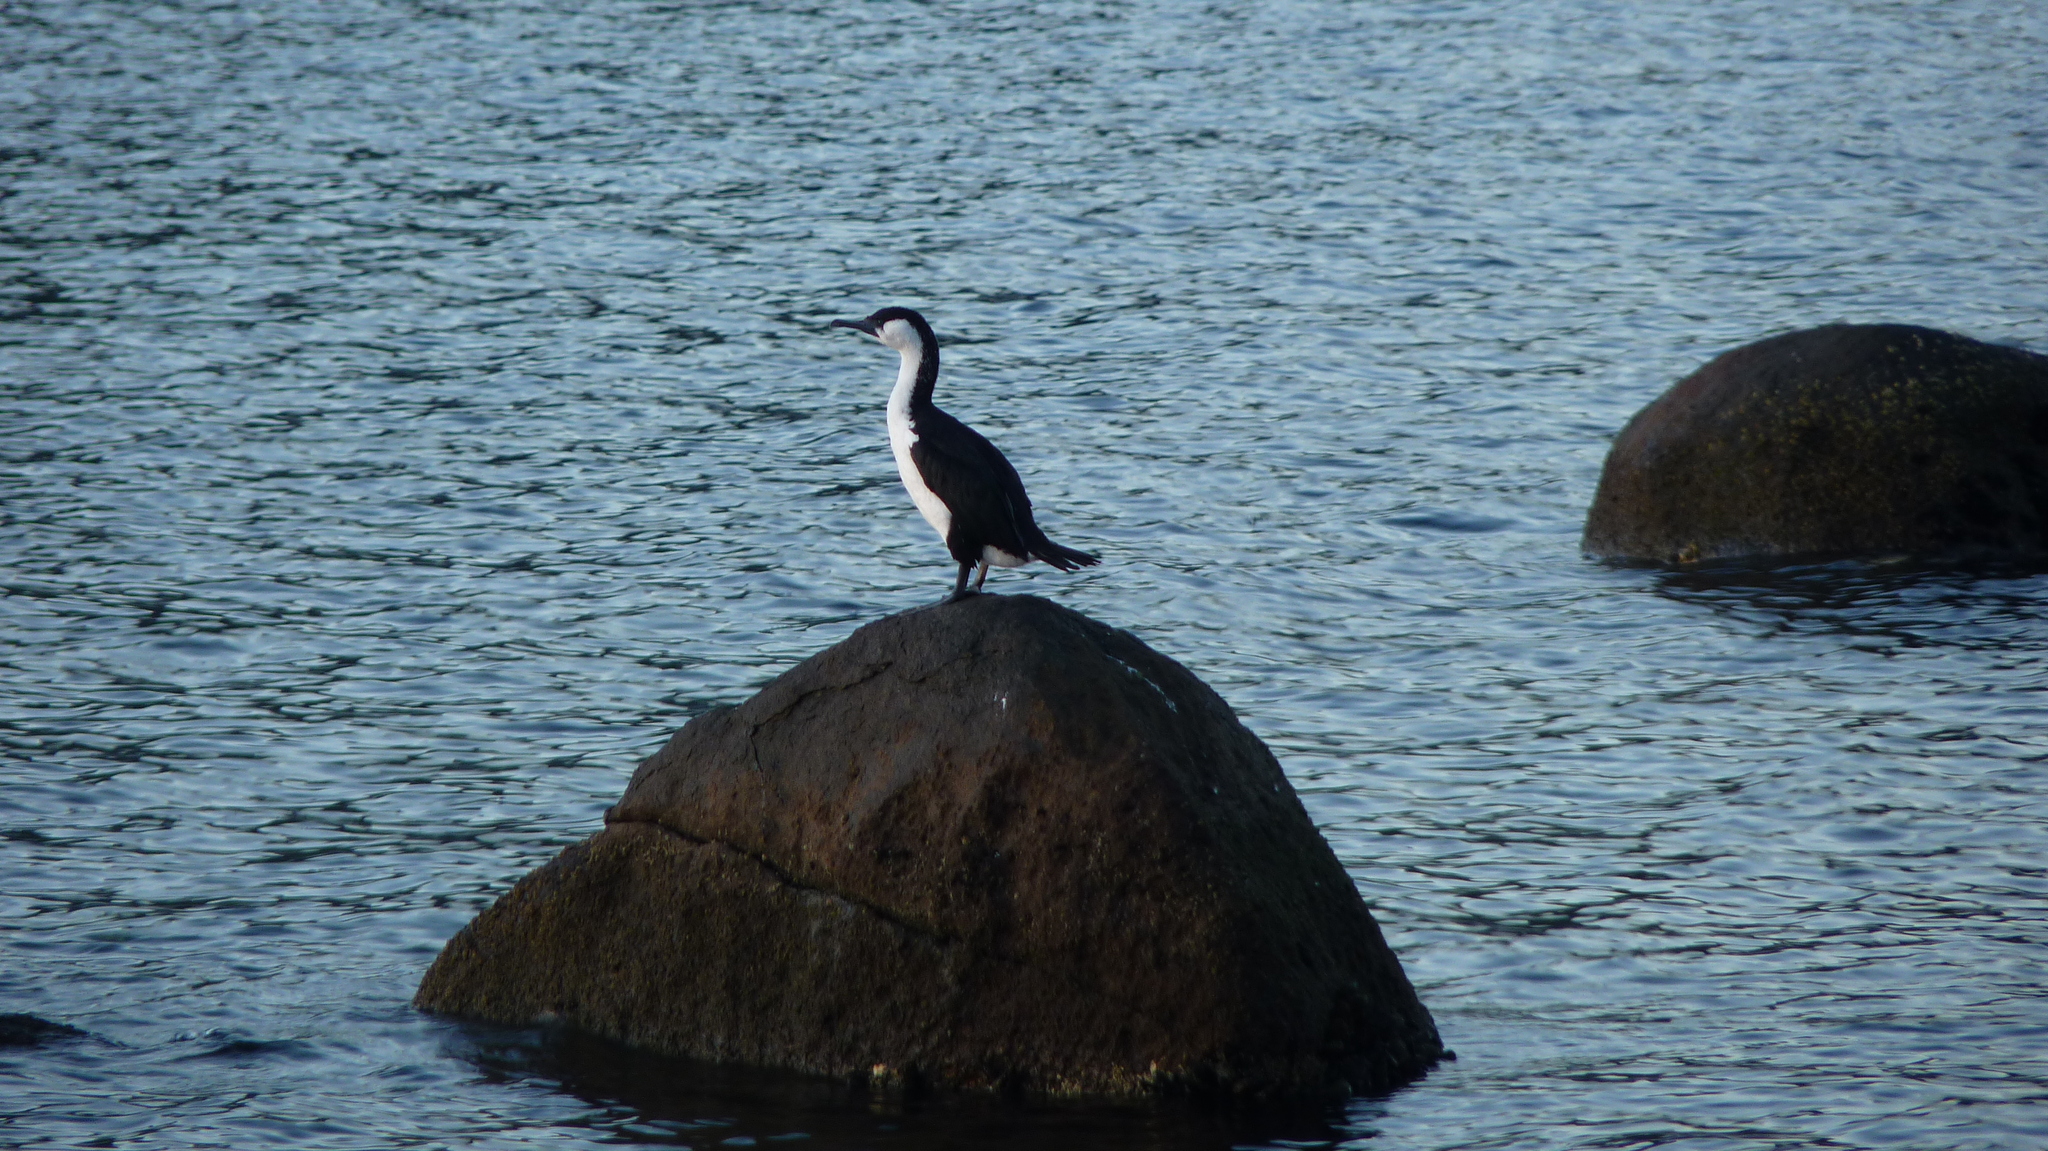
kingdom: Animalia
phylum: Chordata
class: Aves
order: Suliformes
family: Phalacrocoracidae
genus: Phalacrocorax
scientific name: Phalacrocorax fuscescens
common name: Black-faced cormorant
